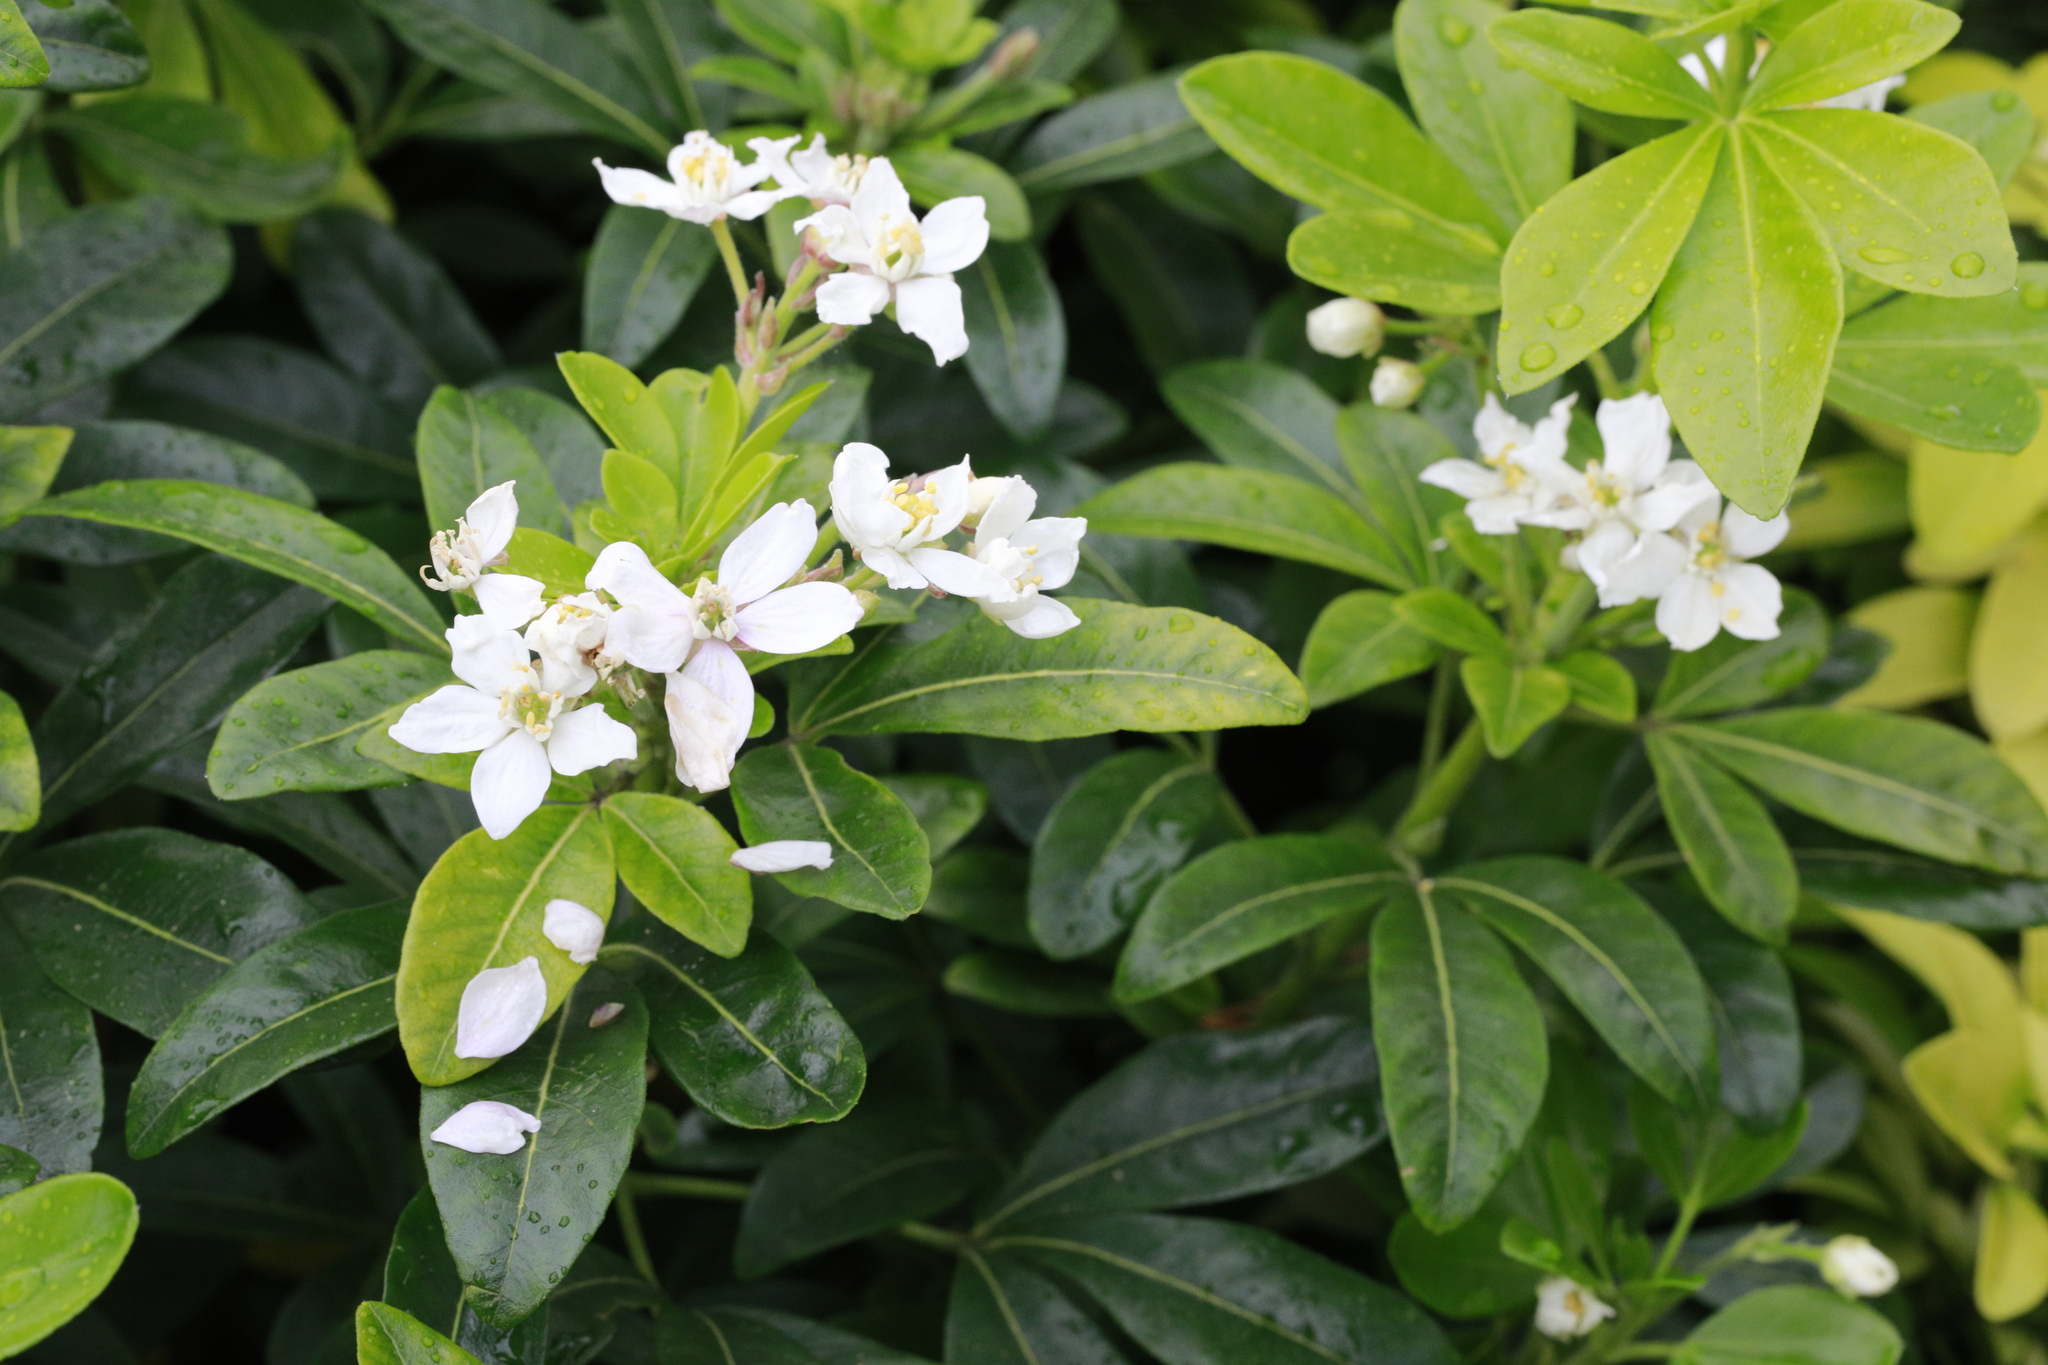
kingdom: Plantae
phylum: Tracheophyta
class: Magnoliopsida
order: Sapindales
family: Rutaceae
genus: Choisya
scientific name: Choisya ternata
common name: Mexican orange
